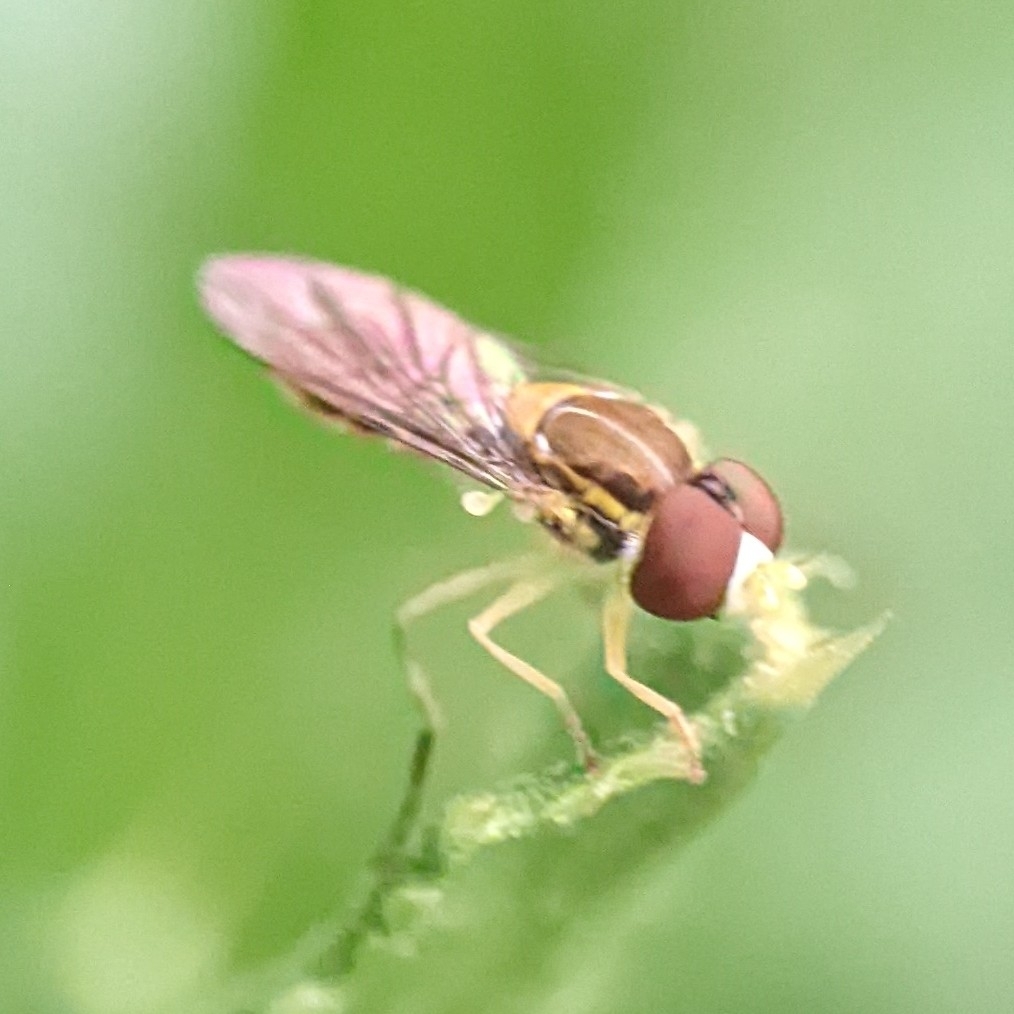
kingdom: Animalia
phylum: Arthropoda
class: Insecta
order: Diptera
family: Syrphidae
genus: Toxomerus
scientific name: Toxomerus marginatus
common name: Syrphid fly
